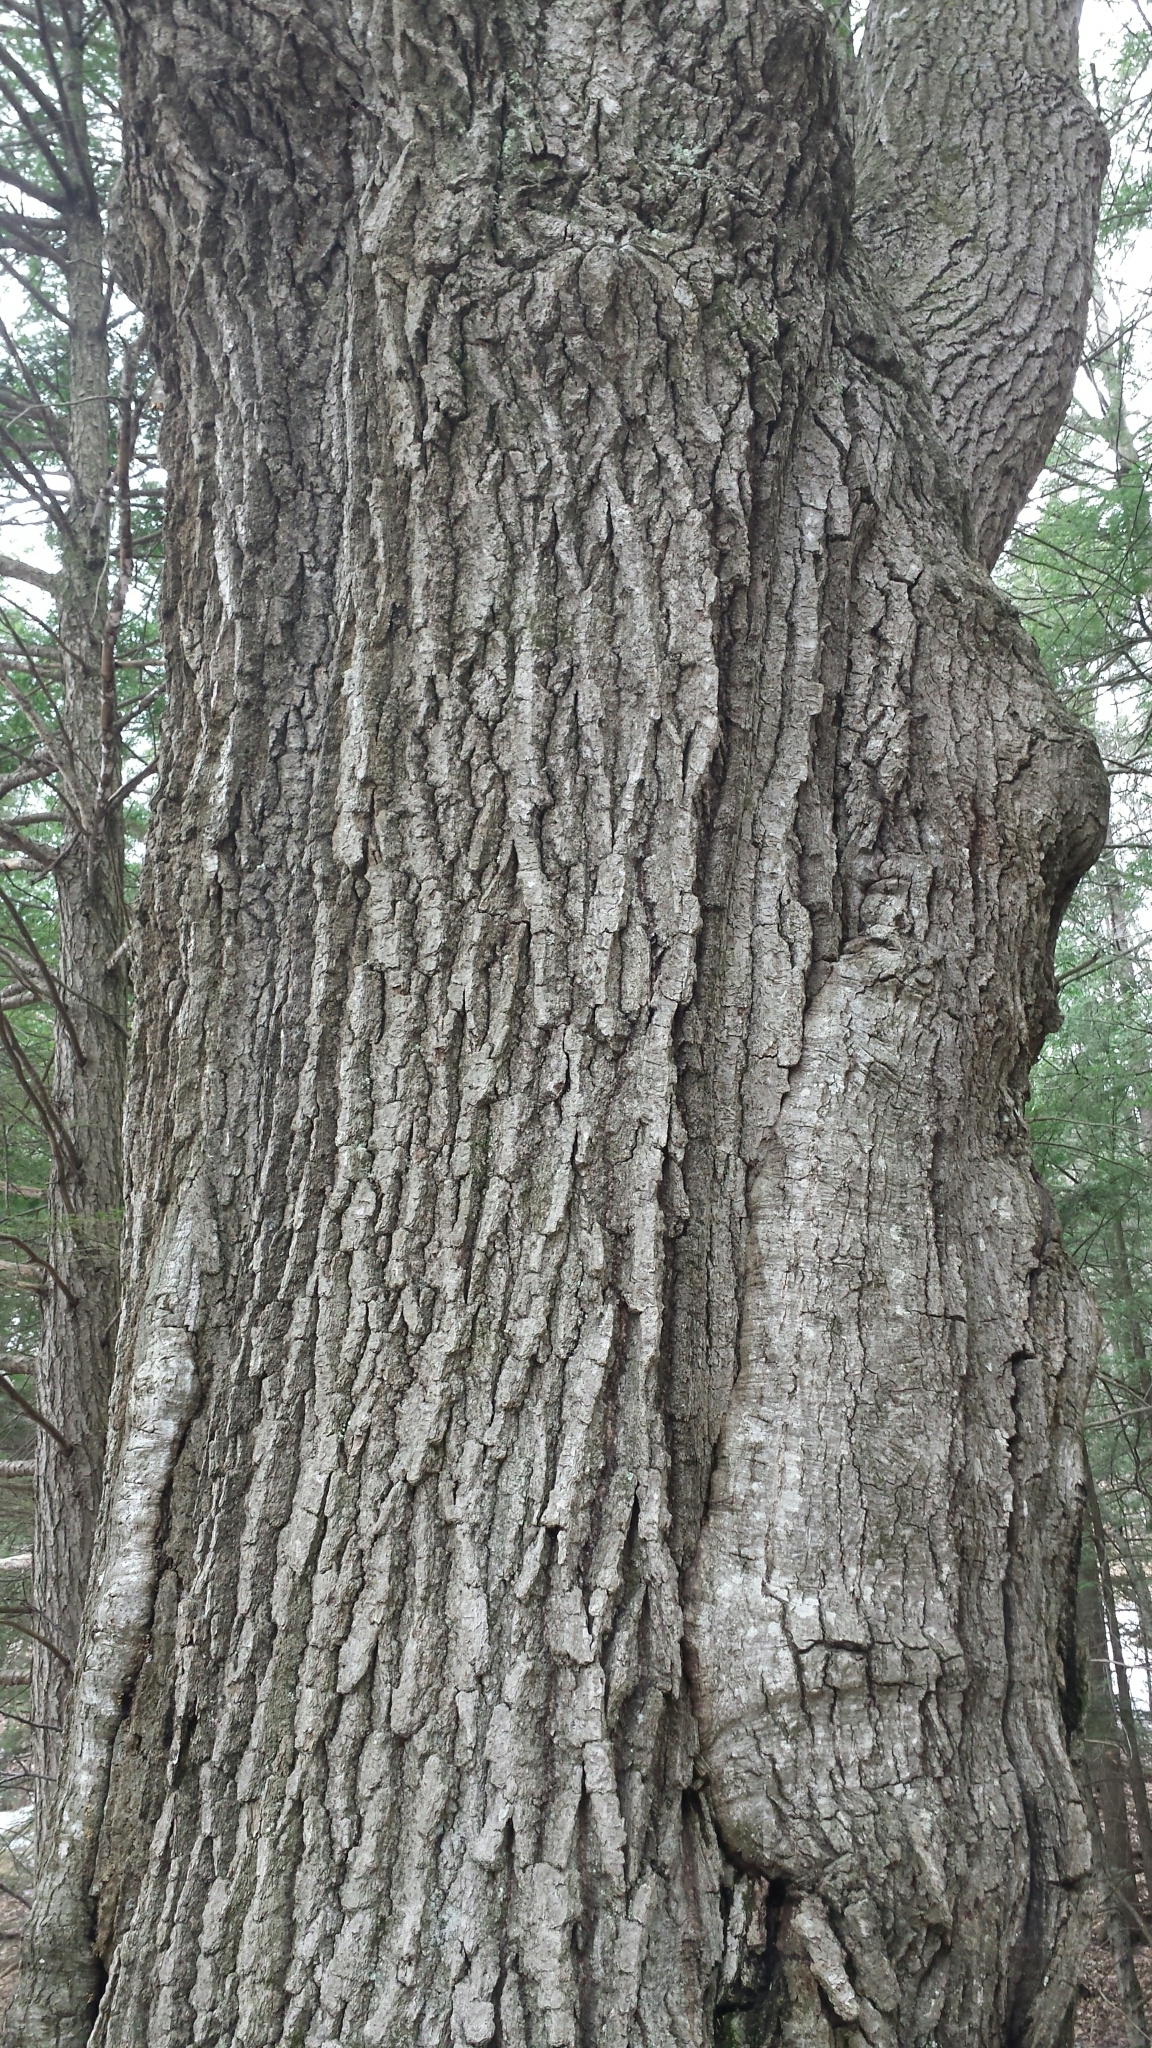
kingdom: Plantae
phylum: Tracheophyta
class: Magnoliopsida
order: Fagales
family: Fagaceae
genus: Quercus
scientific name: Quercus rubra
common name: Red oak
